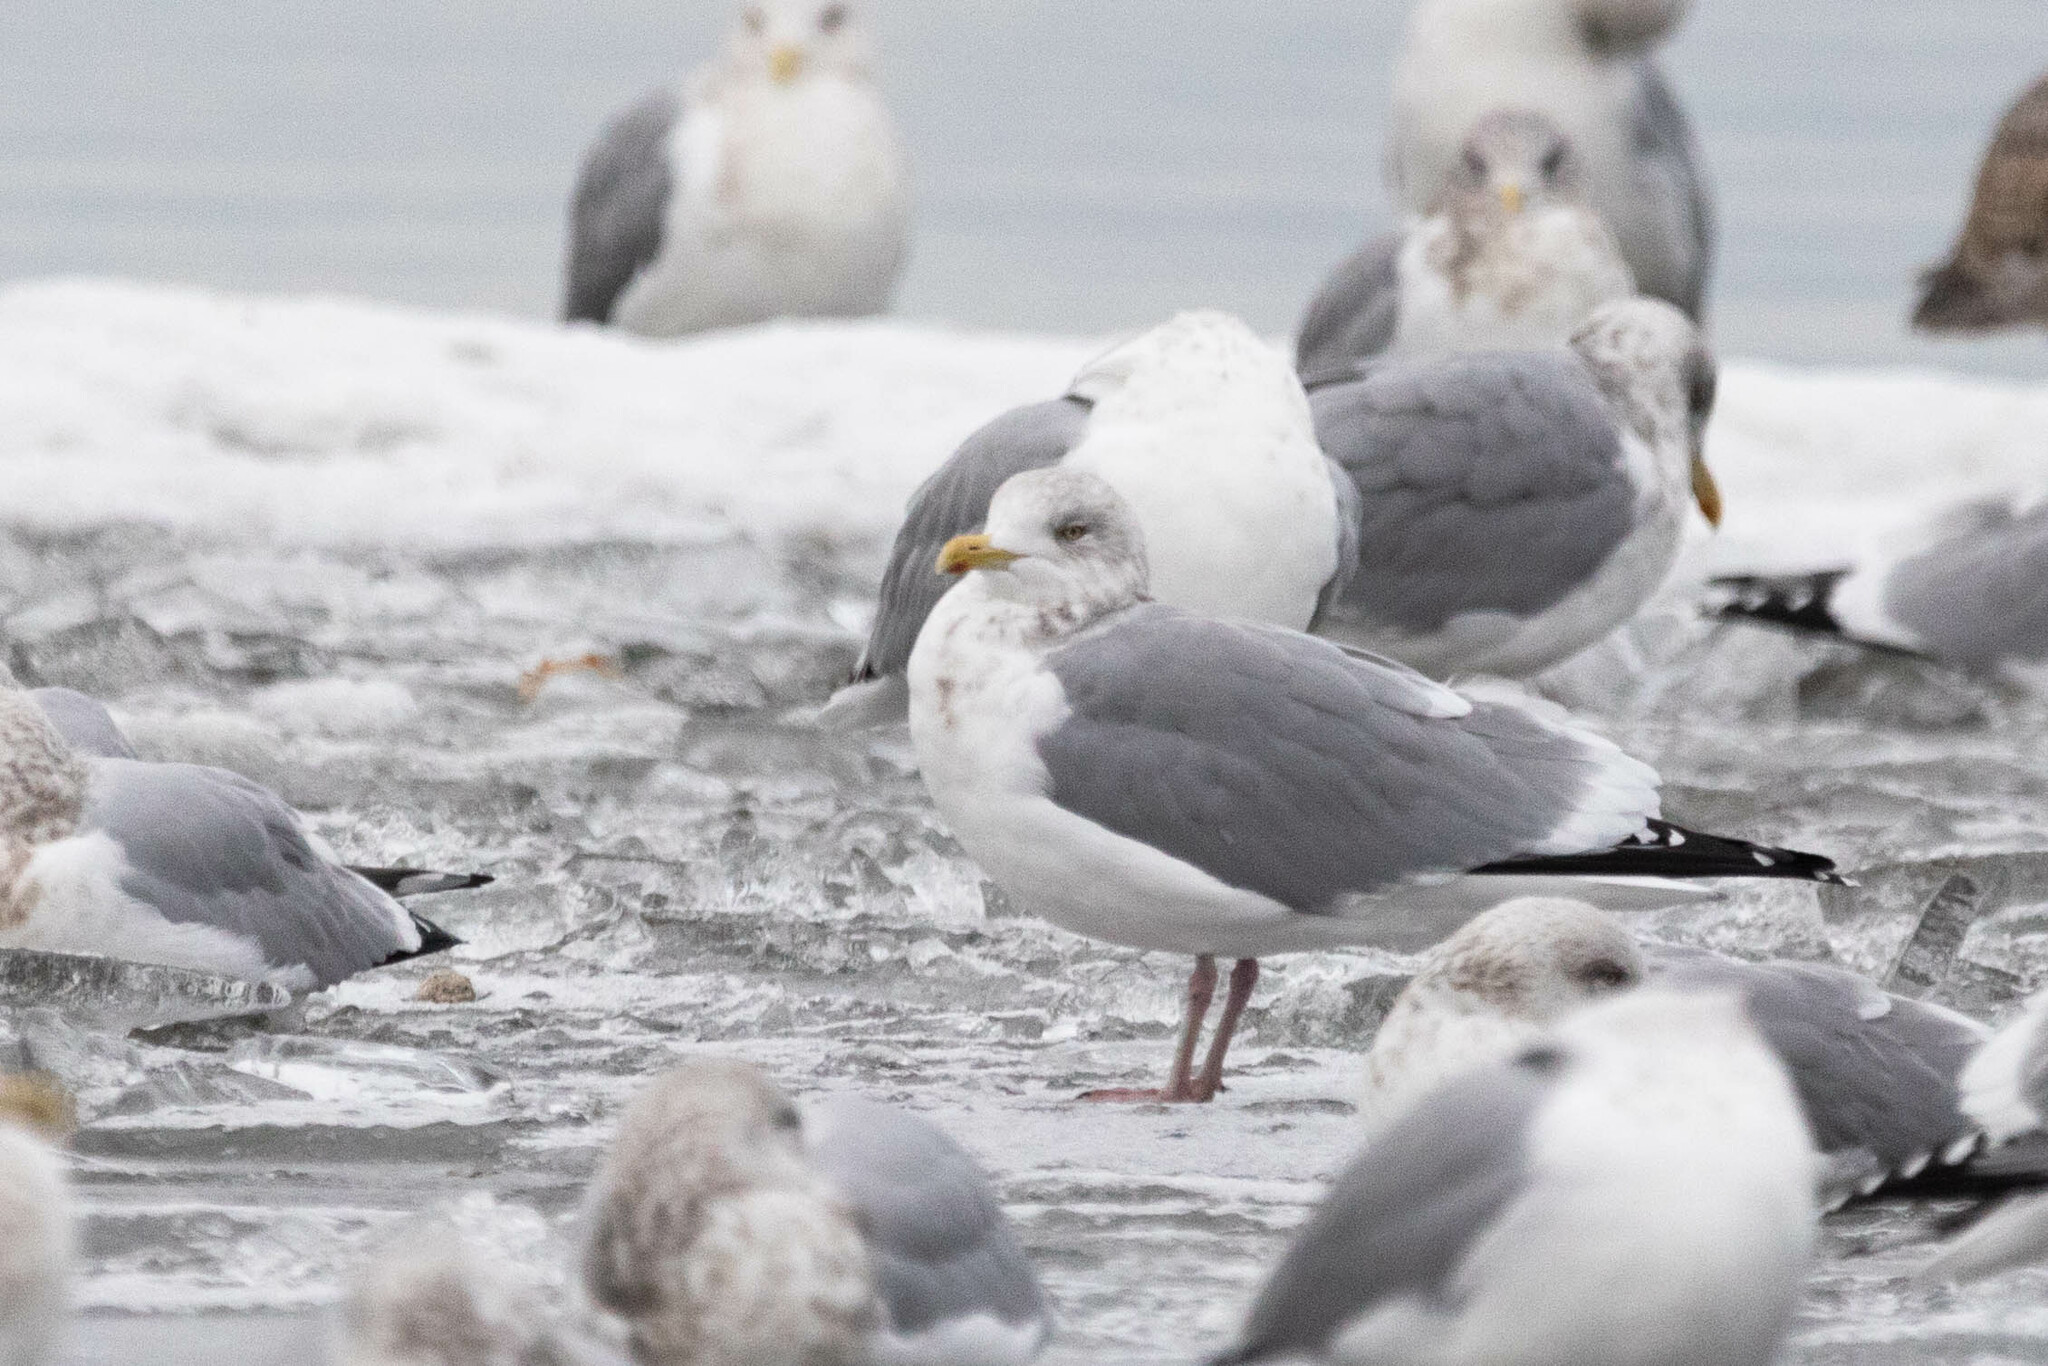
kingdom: Animalia
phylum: Chordata
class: Aves
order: Charadriiformes
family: Laridae
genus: Larus
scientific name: Larus argentatus
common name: Herring gull
